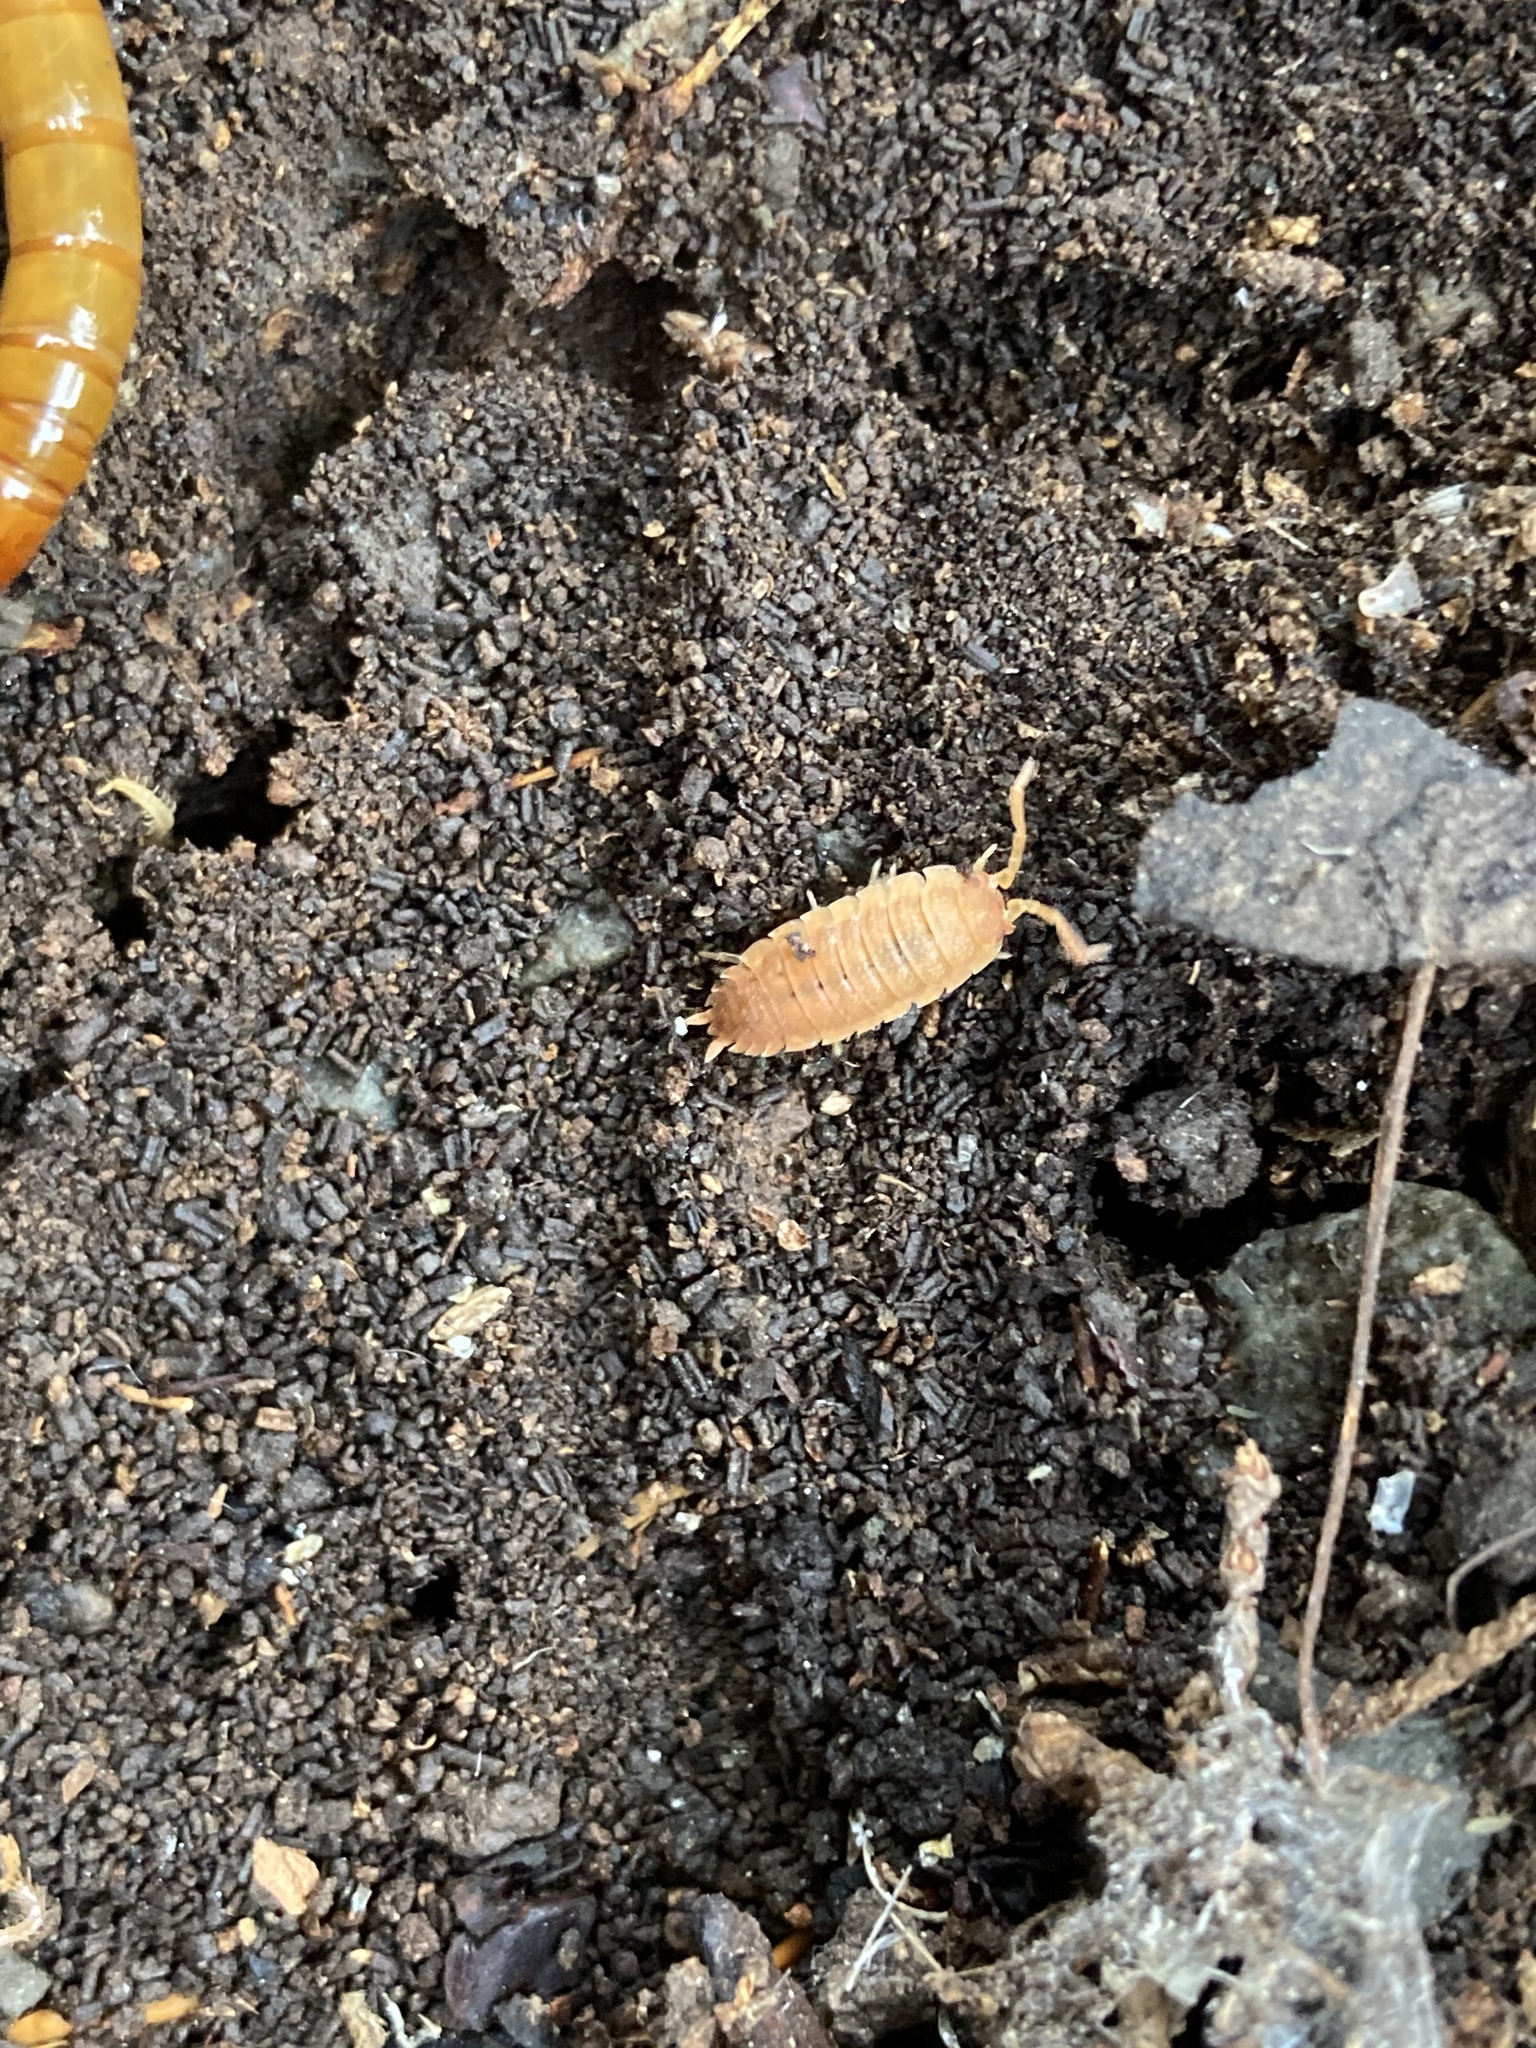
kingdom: Animalia
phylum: Arthropoda
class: Malacostraca
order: Isopoda
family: Porcellionidae
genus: Porcellio
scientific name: Porcellio scaber
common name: Common rough woodlouse
